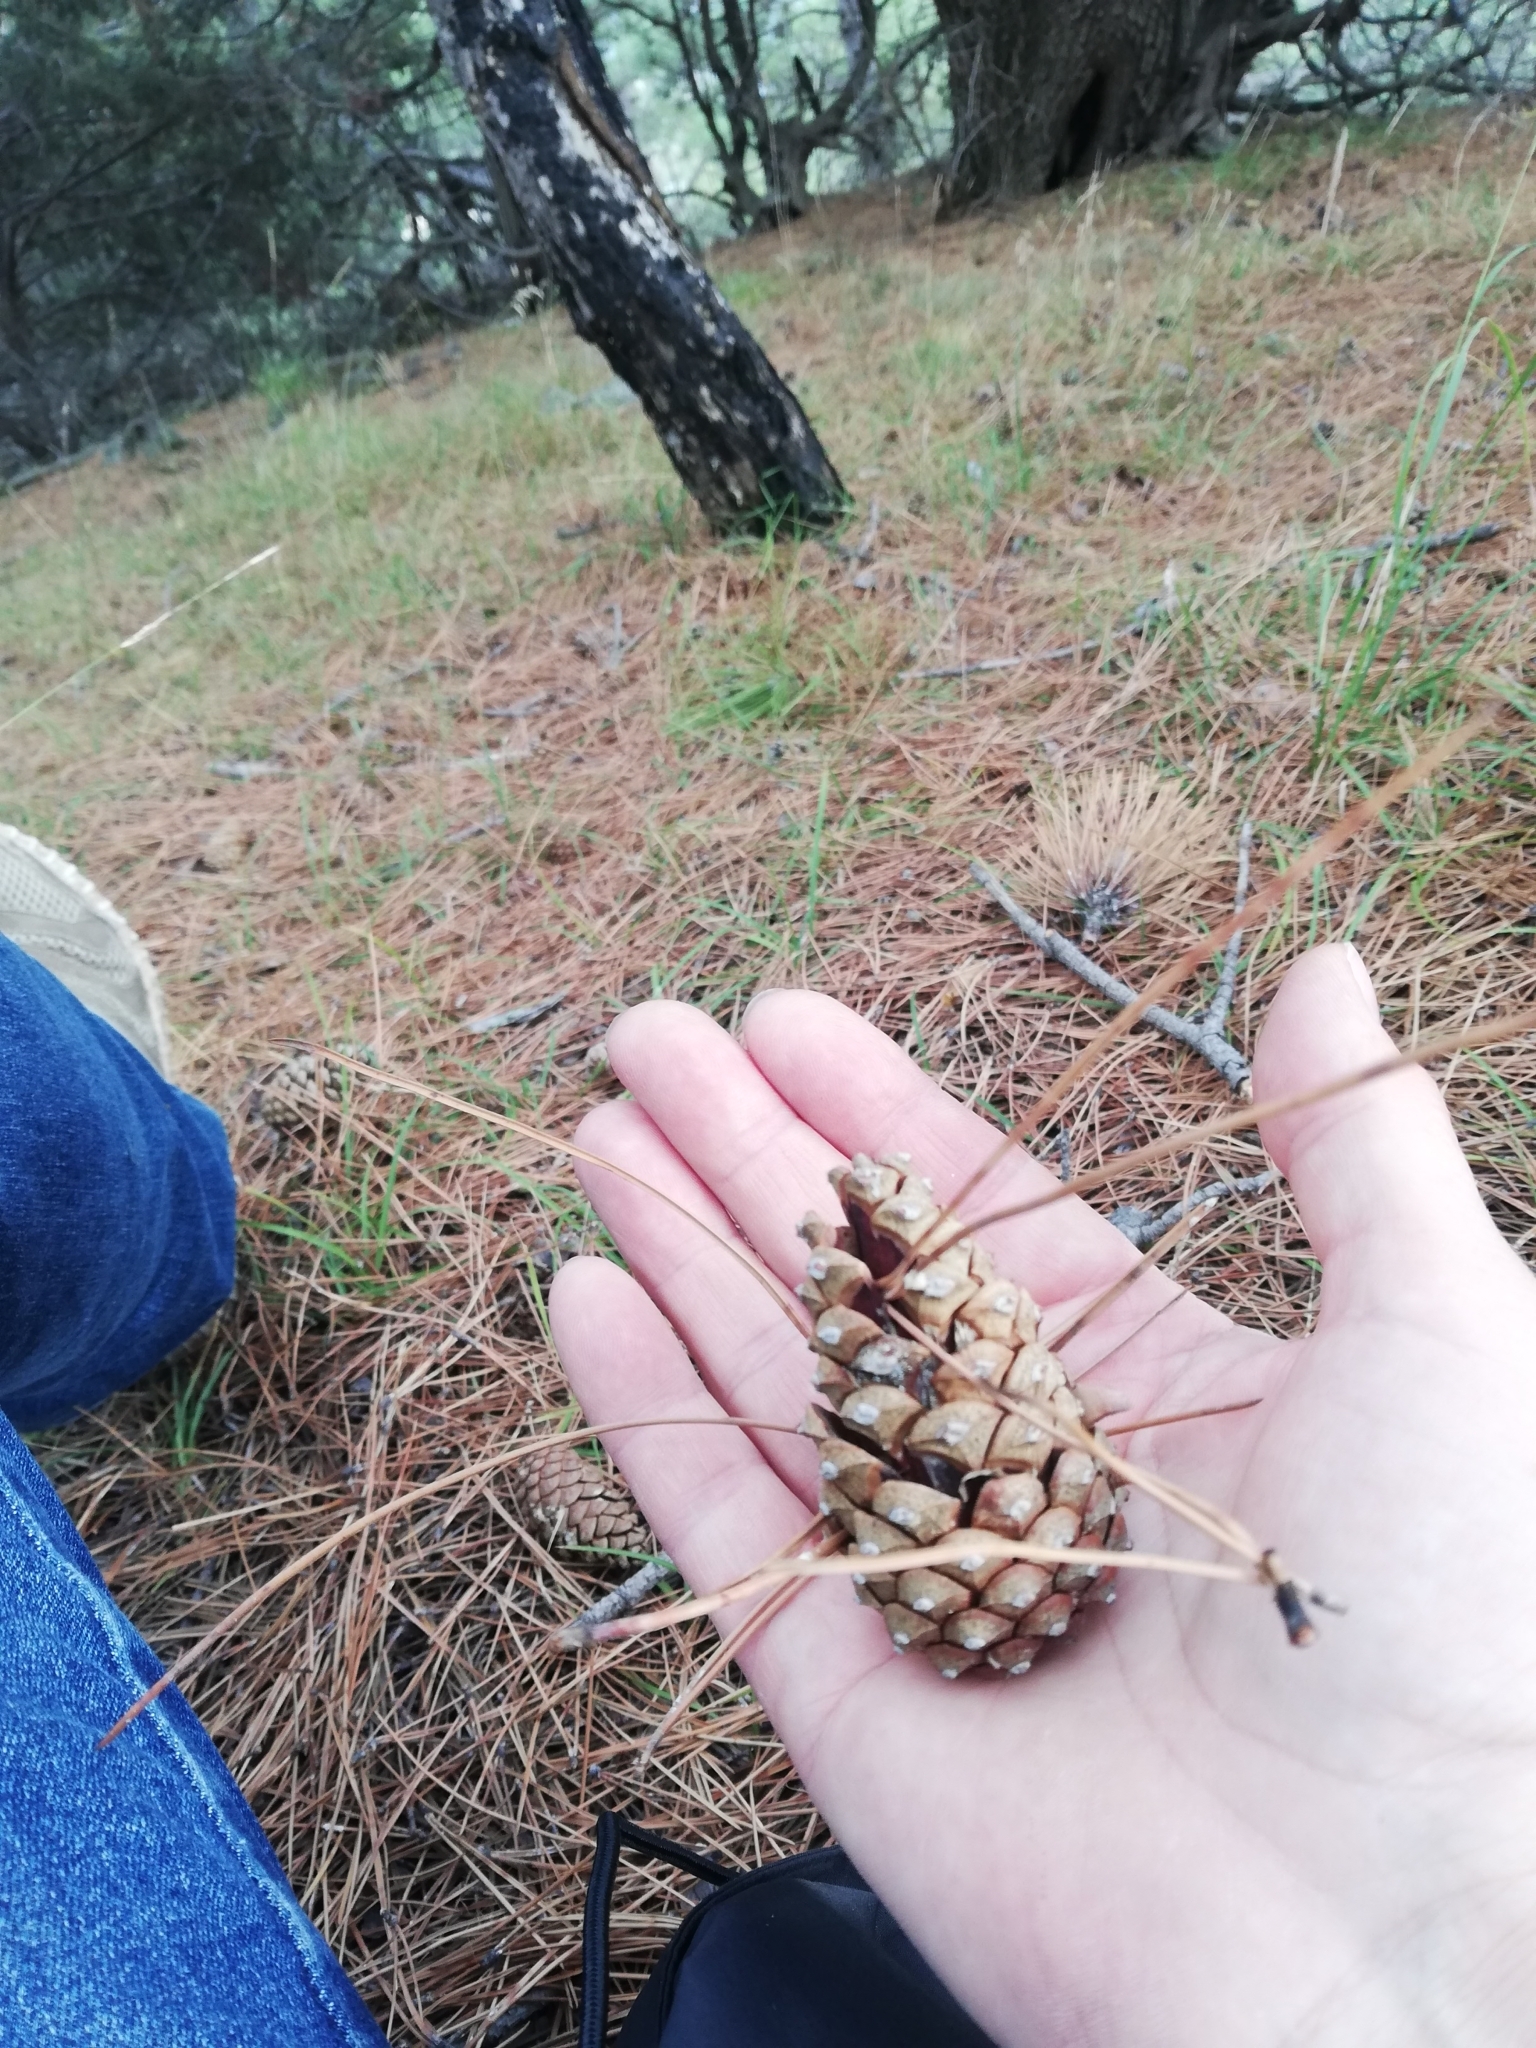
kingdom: Plantae
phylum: Tracheophyta
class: Pinopsida
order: Pinales
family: Pinaceae
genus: Pinus
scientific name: Pinus nigra
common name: Austrian pine
